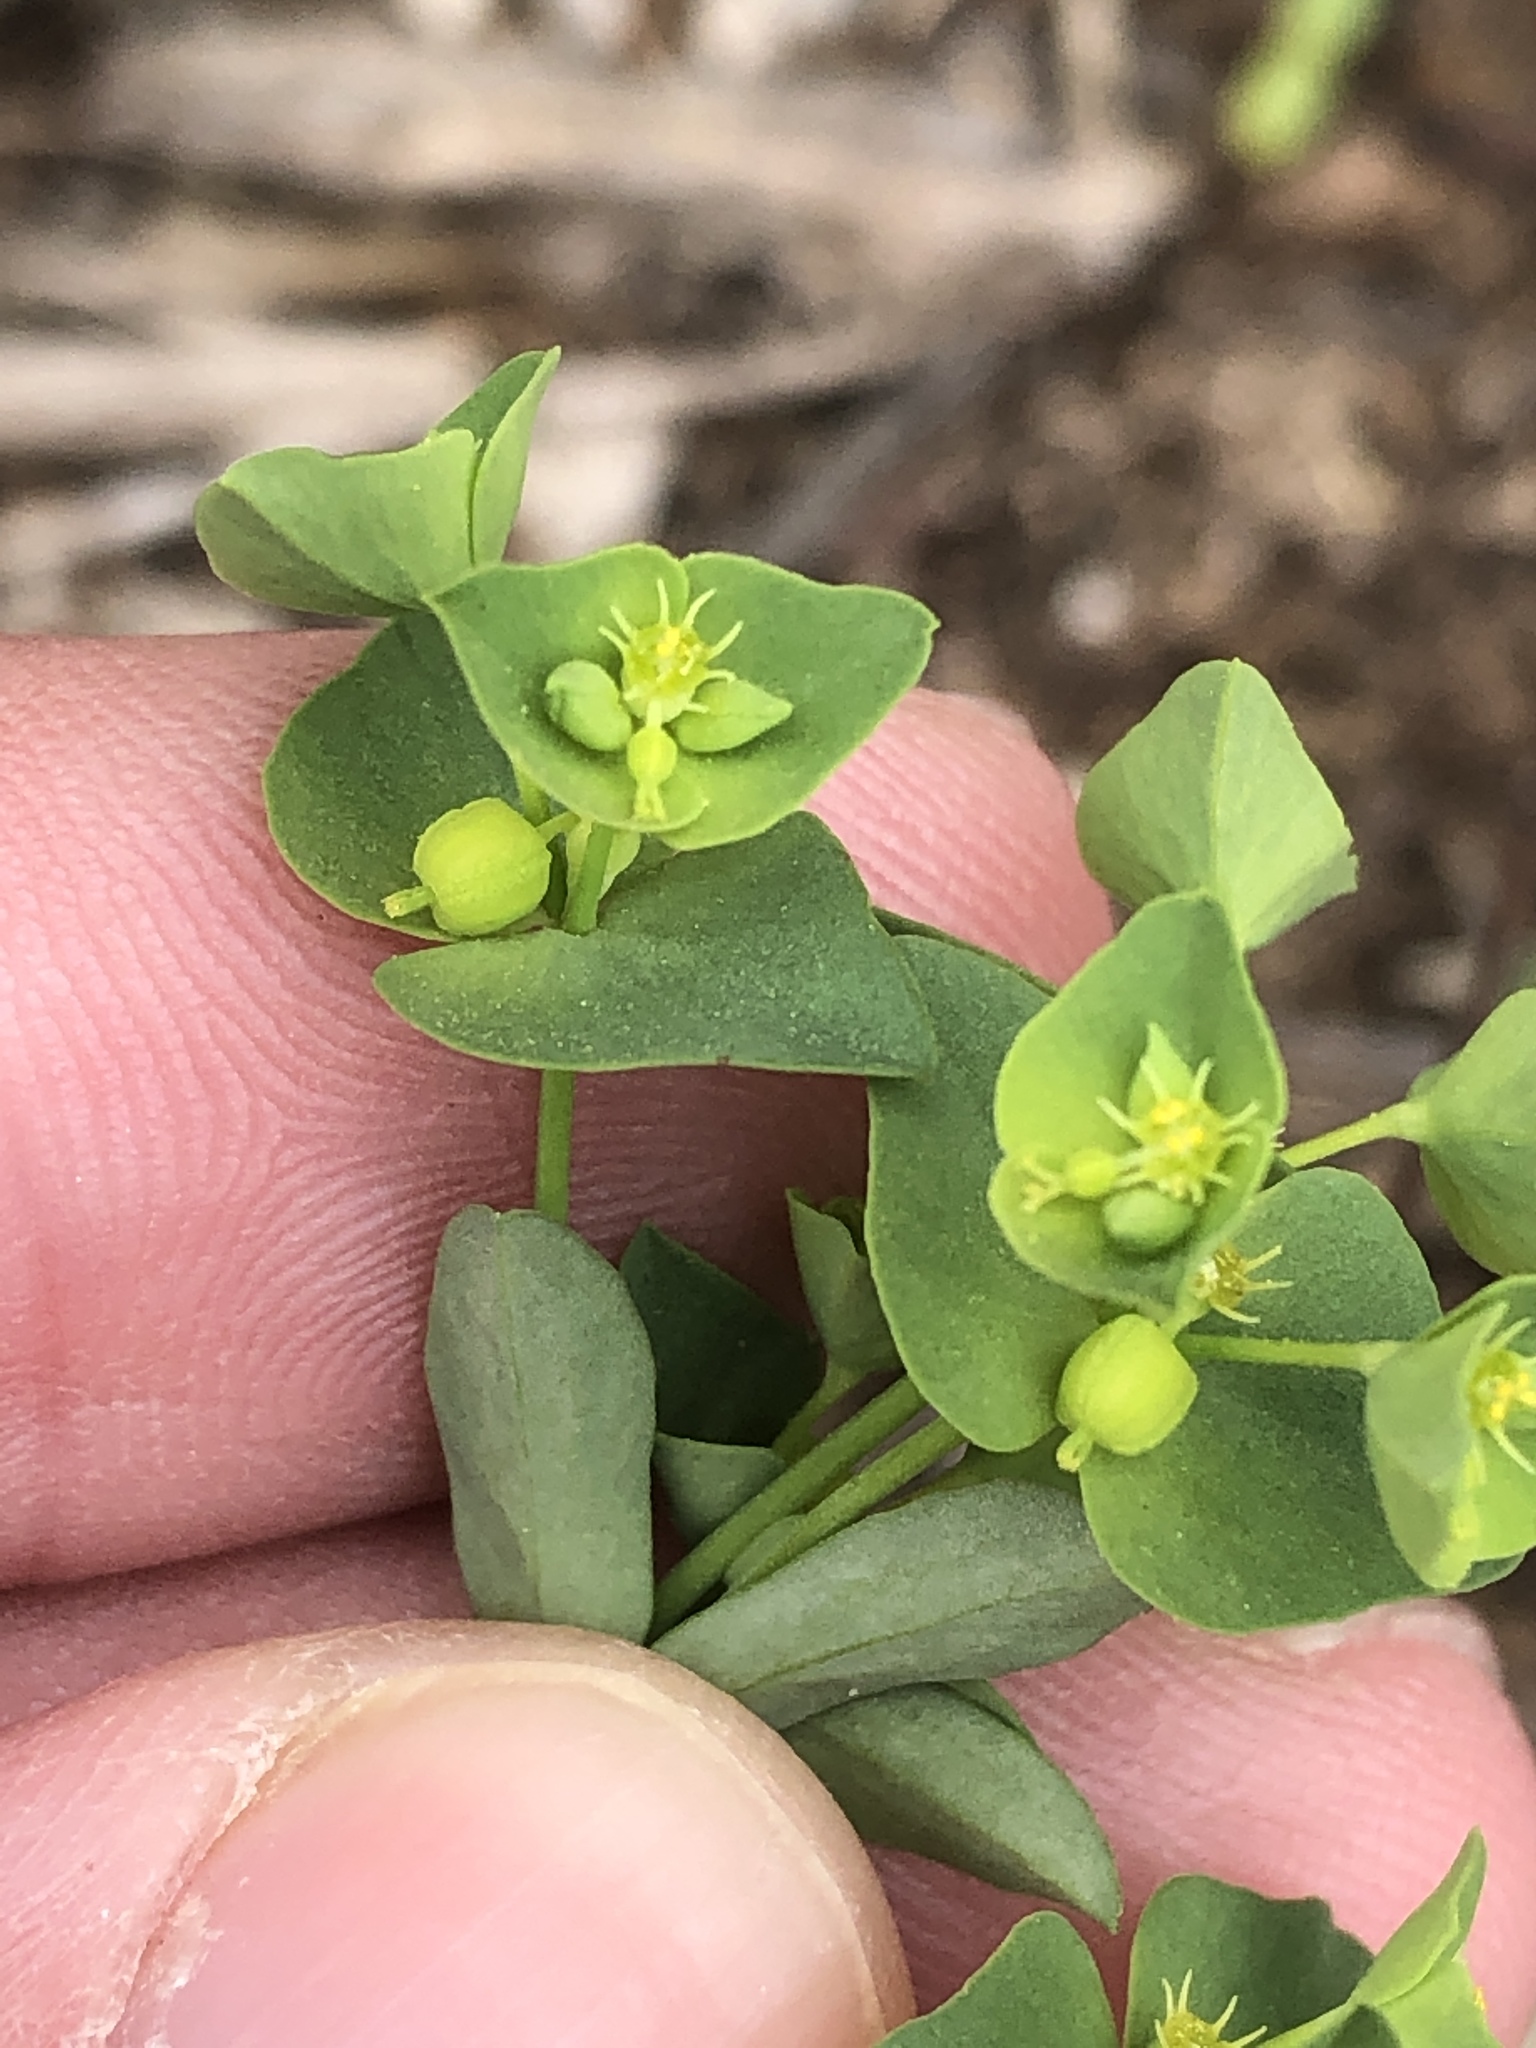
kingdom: Plantae
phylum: Tracheophyta
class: Magnoliopsida
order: Malpighiales
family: Euphorbiaceae
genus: Euphorbia
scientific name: Euphorbia tetrapora
